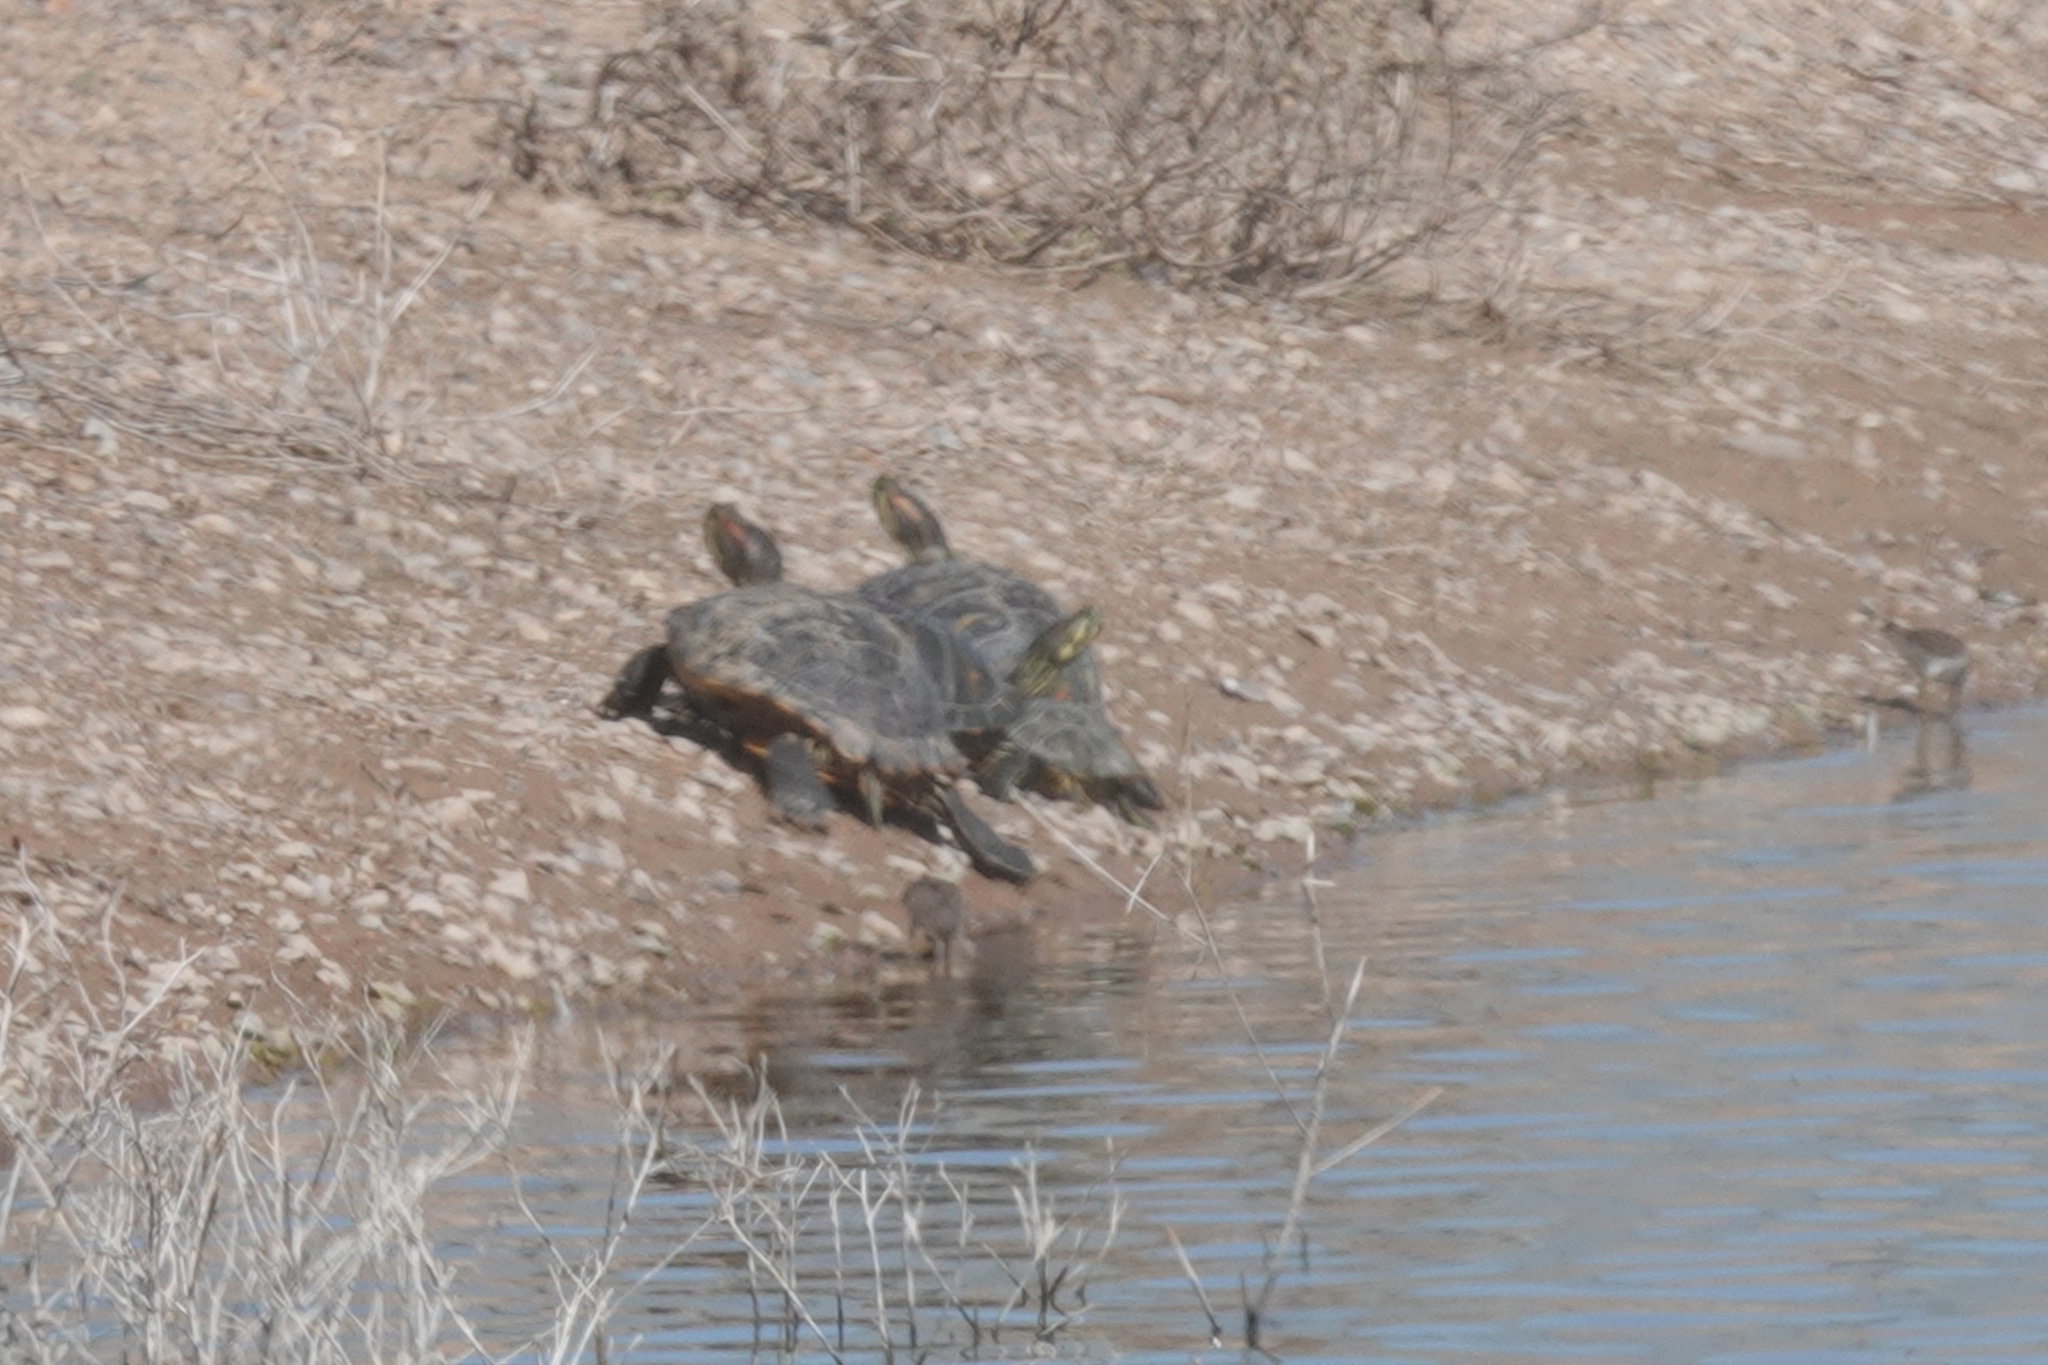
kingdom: Animalia
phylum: Chordata
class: Testudines
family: Emydidae
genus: Trachemys
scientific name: Trachemys scripta
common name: Slider
